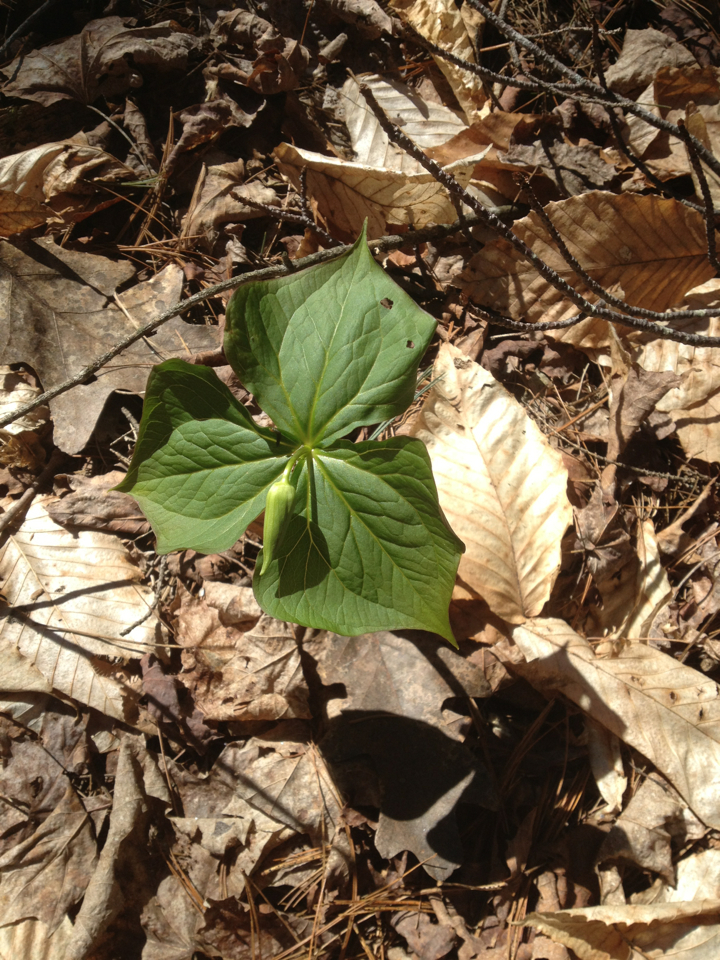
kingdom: Plantae
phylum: Tracheophyta
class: Liliopsida
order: Liliales
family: Melanthiaceae
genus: Trillium
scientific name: Trillium erectum
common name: Purple trillium
